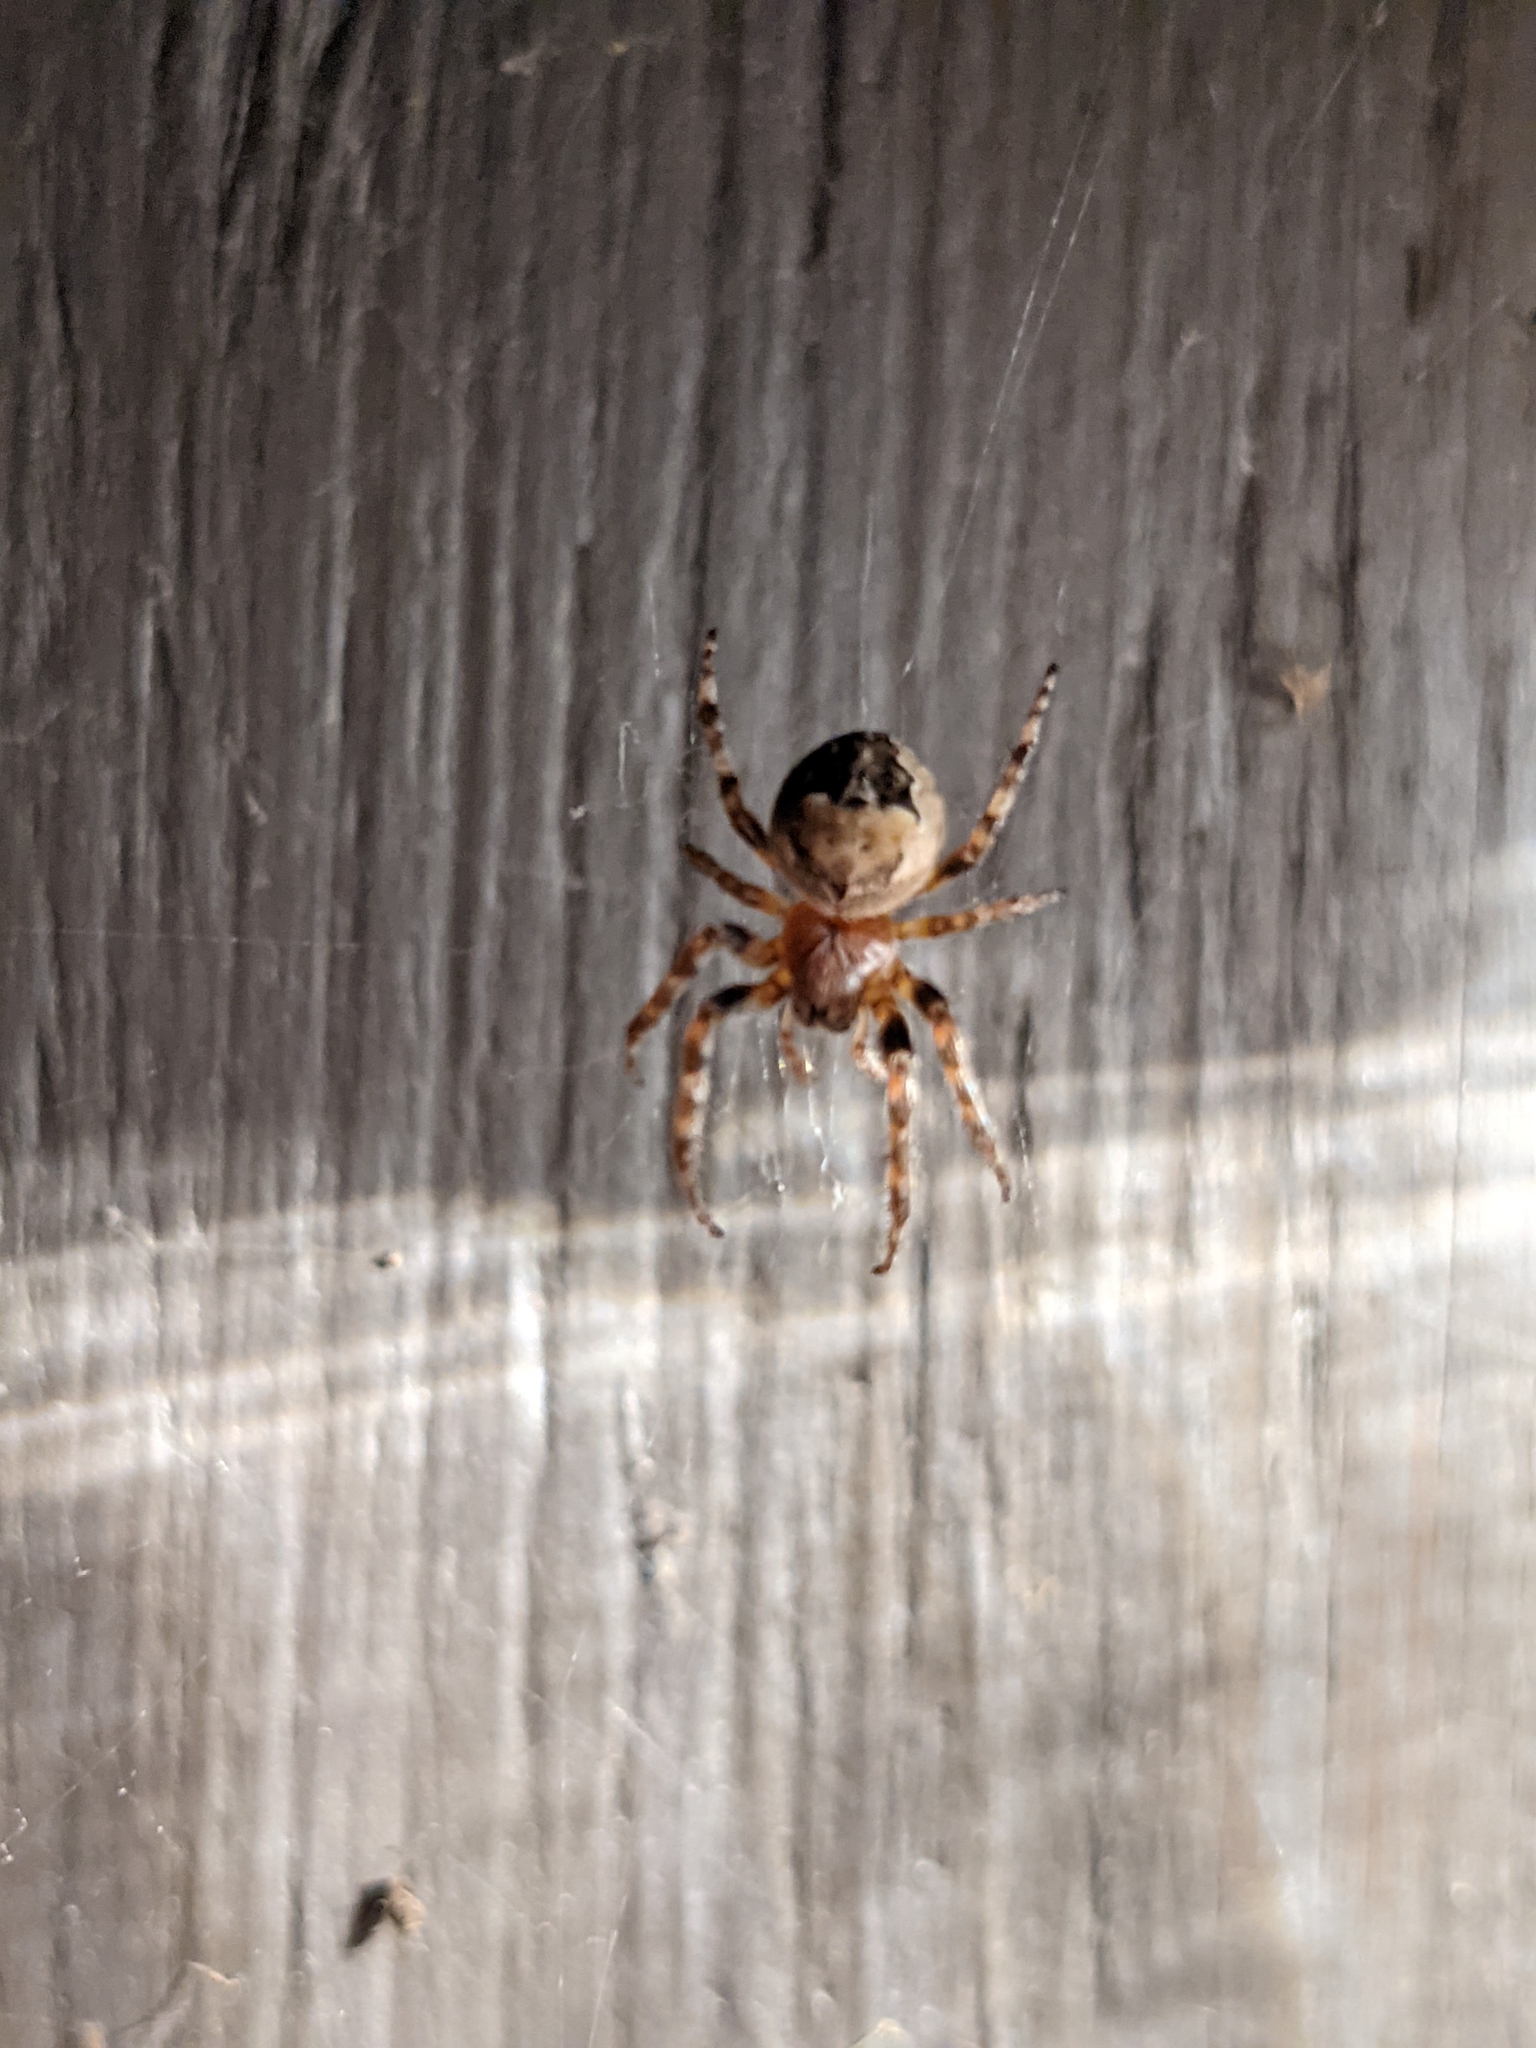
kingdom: Animalia
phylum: Arthropoda
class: Arachnida
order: Araneae
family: Araneidae
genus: Larinioides
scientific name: Larinioides patagiatus
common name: Ornamental orbweaver
